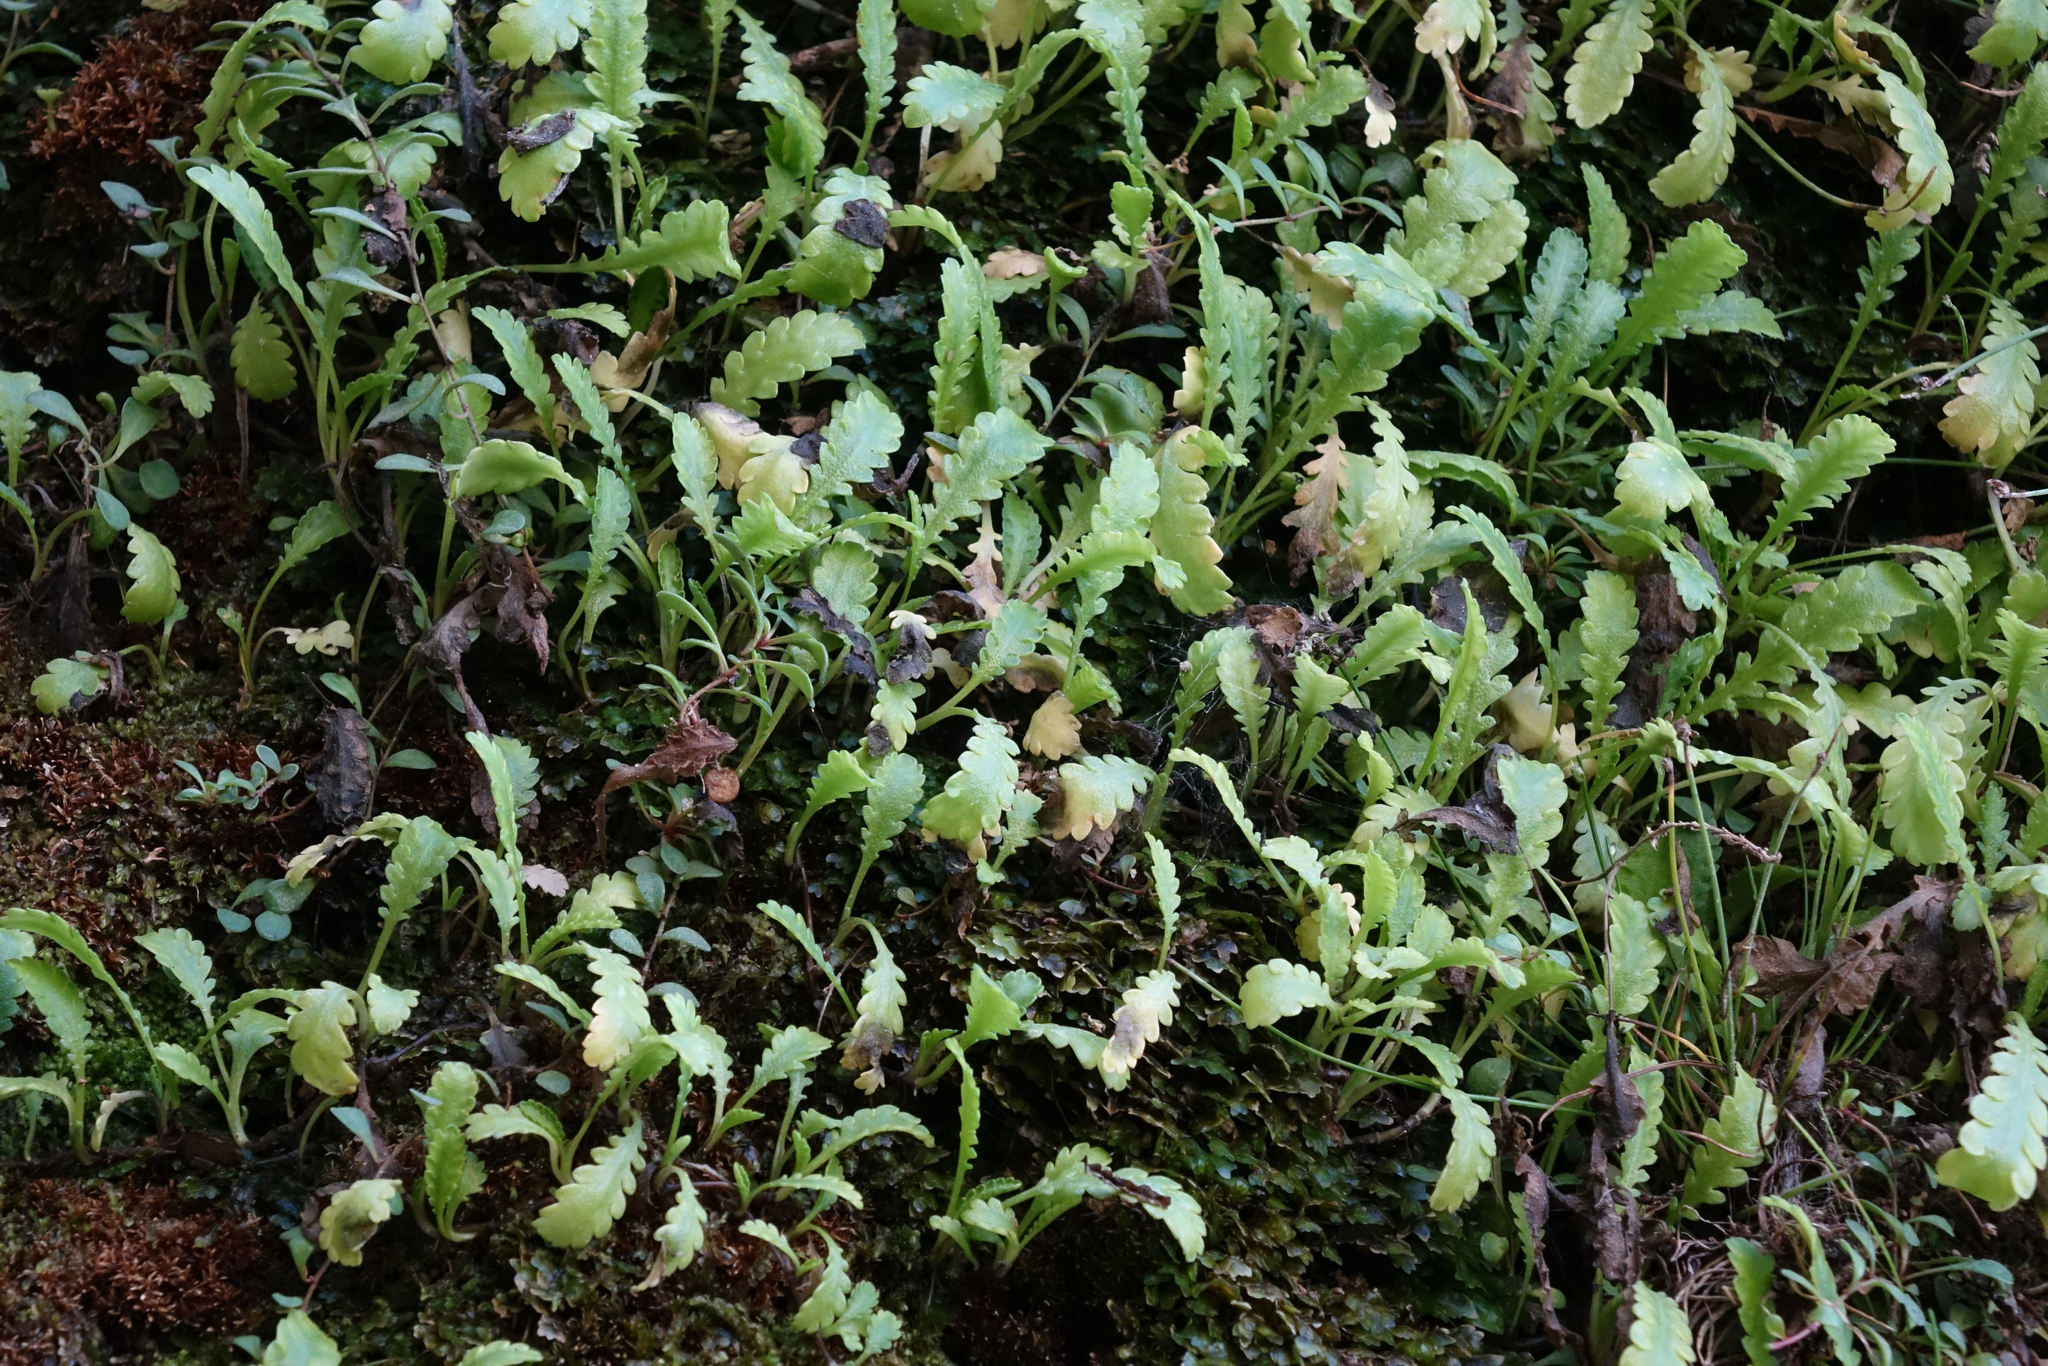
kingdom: Plantae
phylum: Tracheophyta
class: Magnoliopsida
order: Asterales
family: Asteraceae
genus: Leptinella
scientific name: Leptinella dioica
